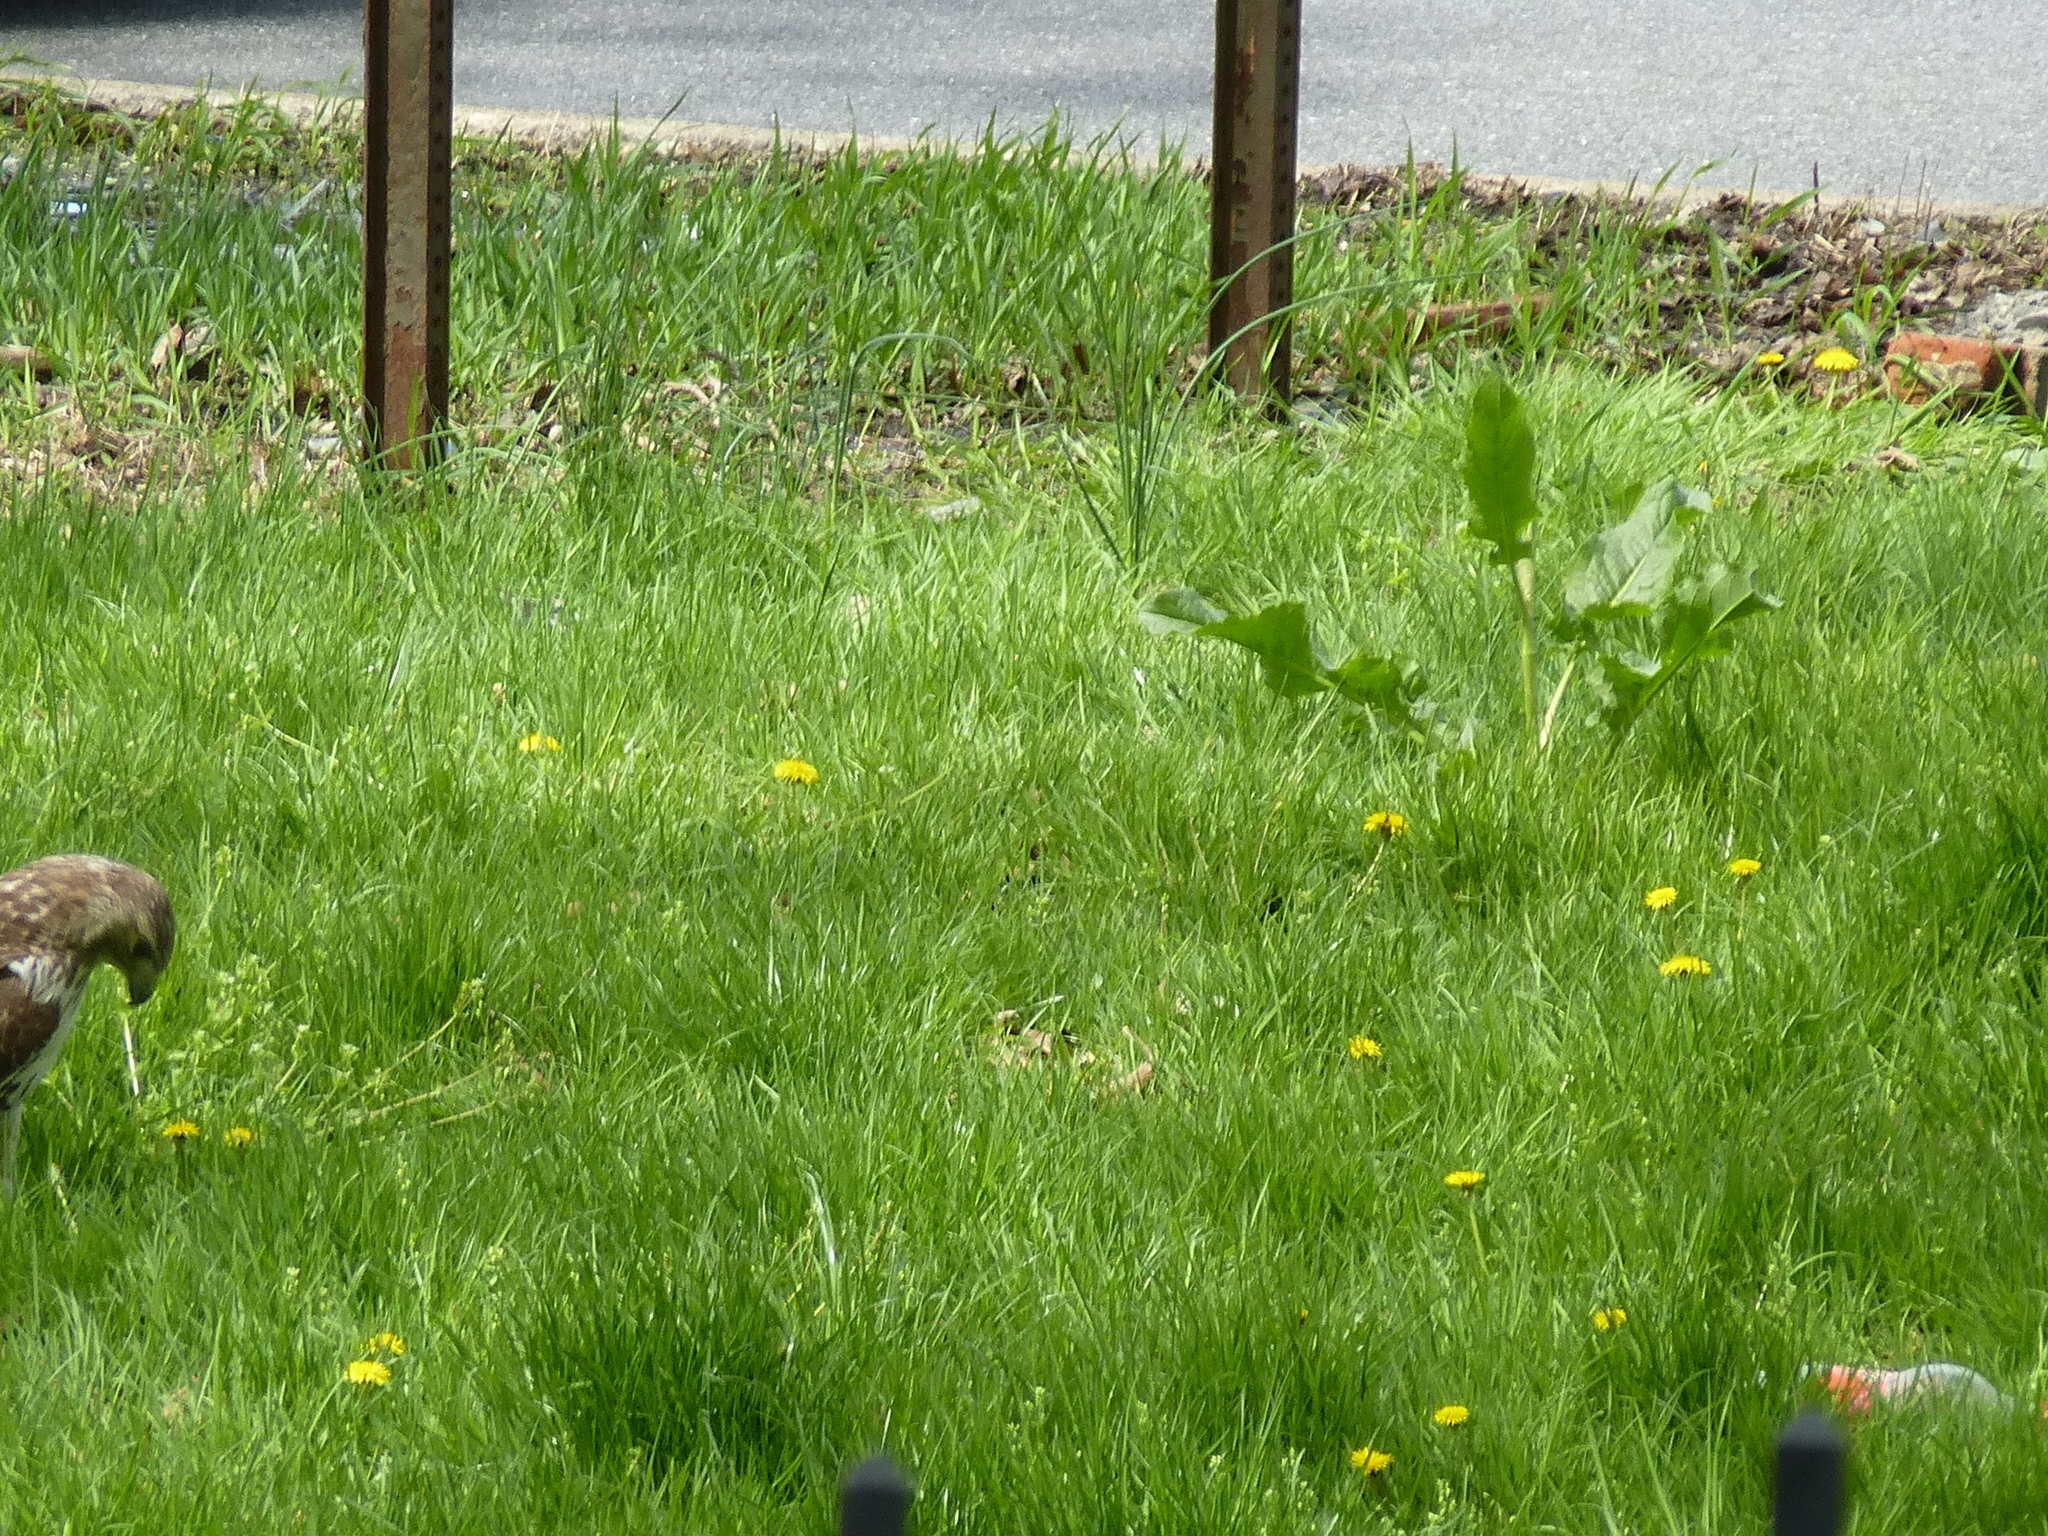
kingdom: Animalia
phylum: Chordata
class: Aves
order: Accipitriformes
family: Accipitridae
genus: Buteo
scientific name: Buteo jamaicensis
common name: Red-tailed hawk
